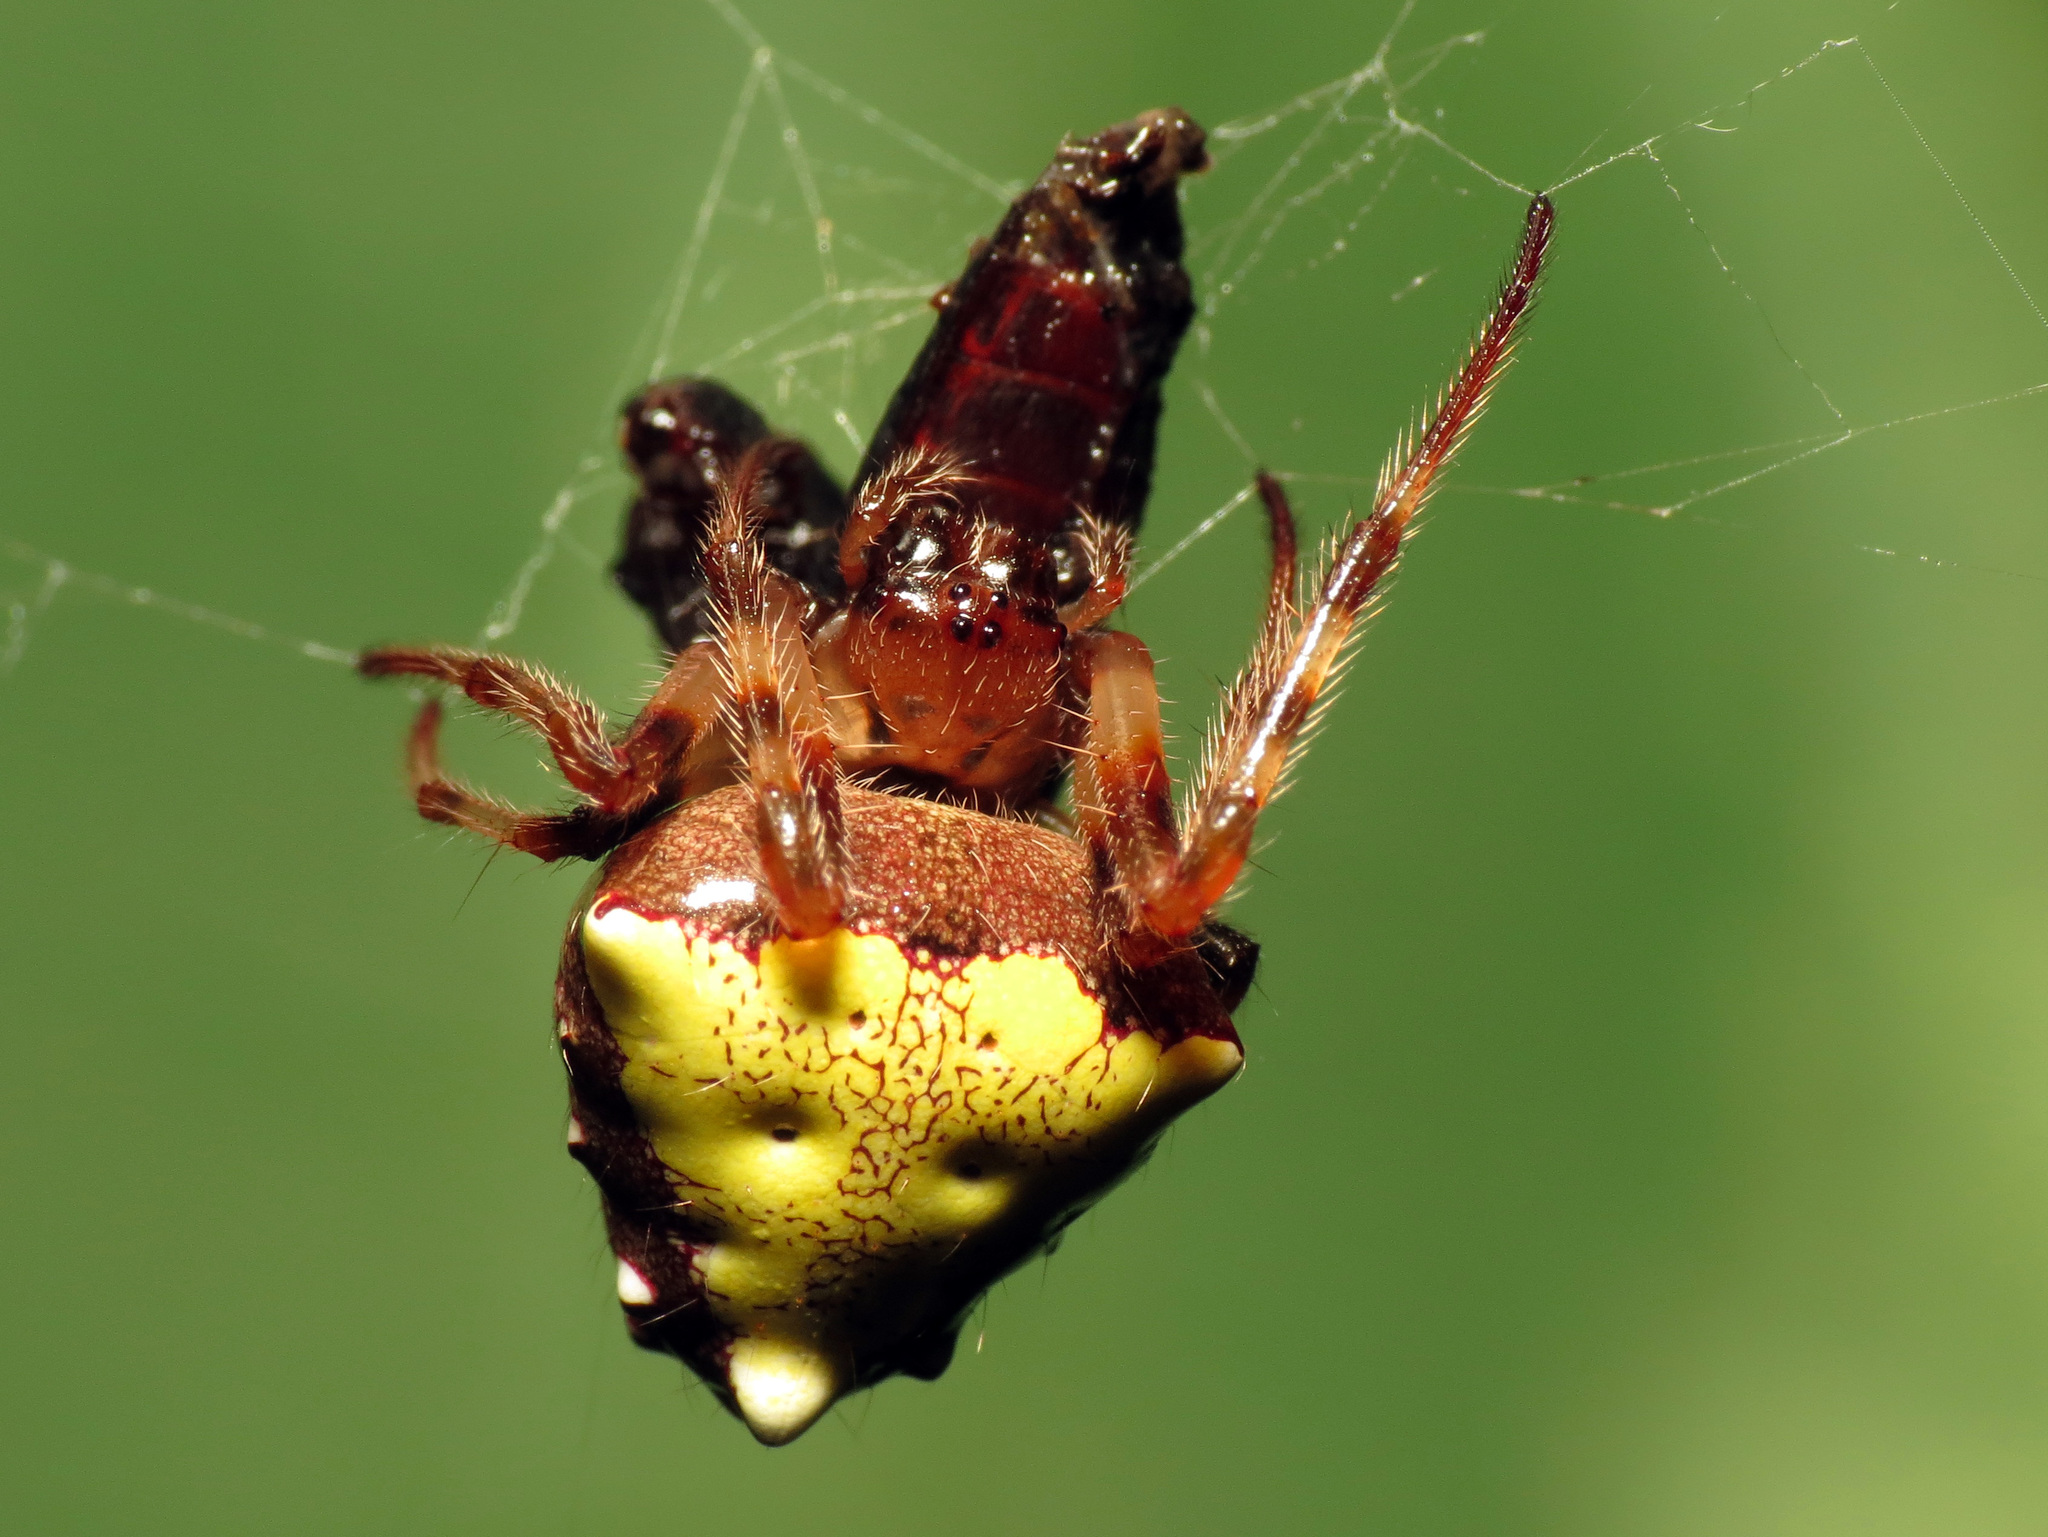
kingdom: Animalia
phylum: Arthropoda
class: Arachnida
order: Araneae
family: Araneidae
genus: Verrucosa
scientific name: Verrucosa arenata
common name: Orb weavers
